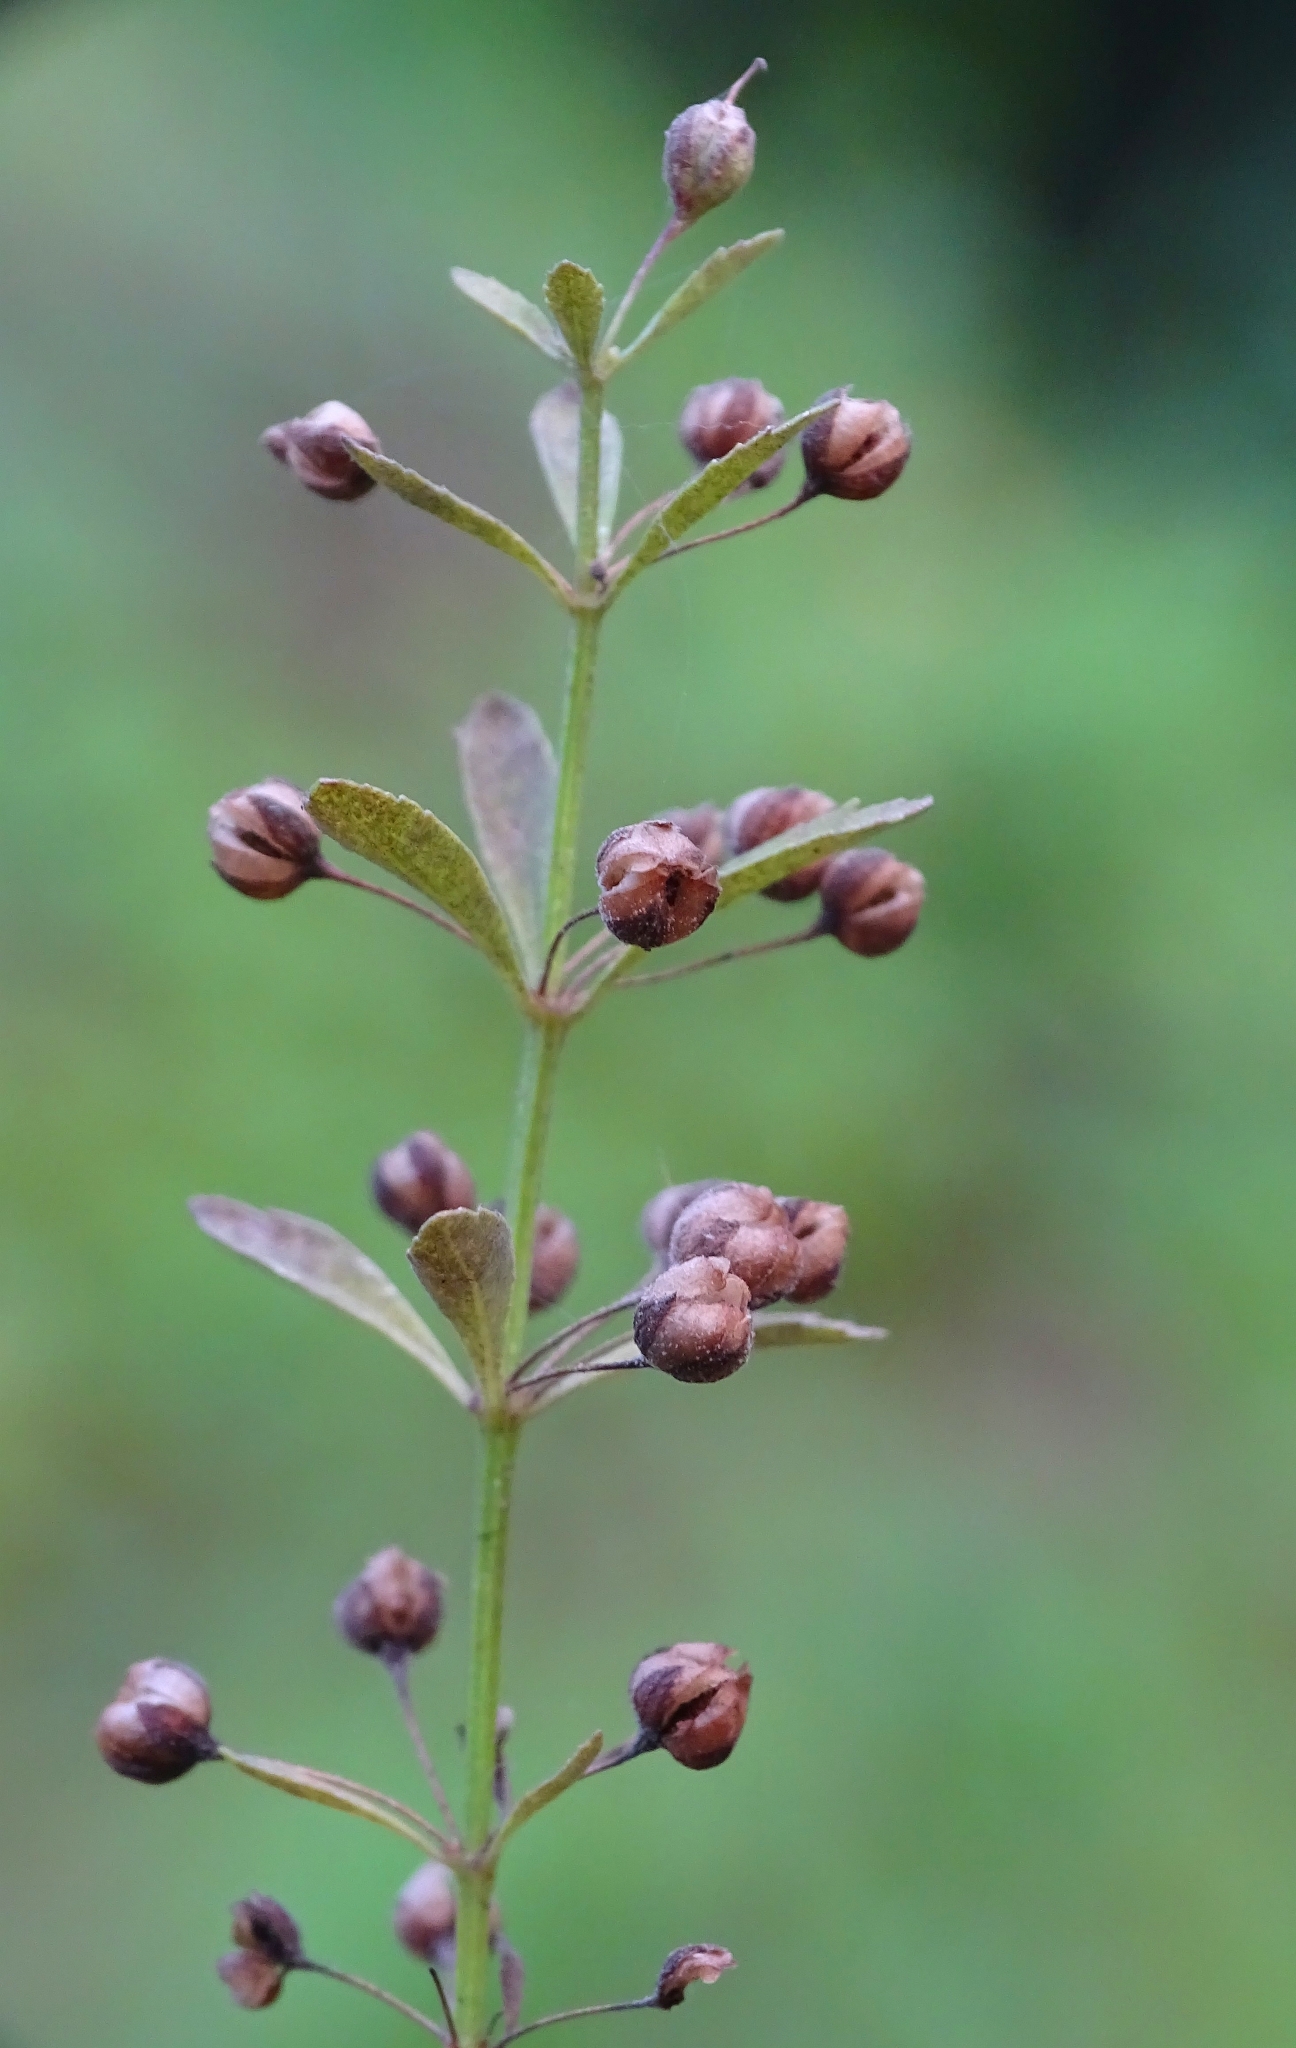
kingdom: Plantae
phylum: Tracheophyta
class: Magnoliopsida
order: Lamiales
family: Plantaginaceae
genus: Scoparia
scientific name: Scoparia dulcis
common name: Scoparia-weed
